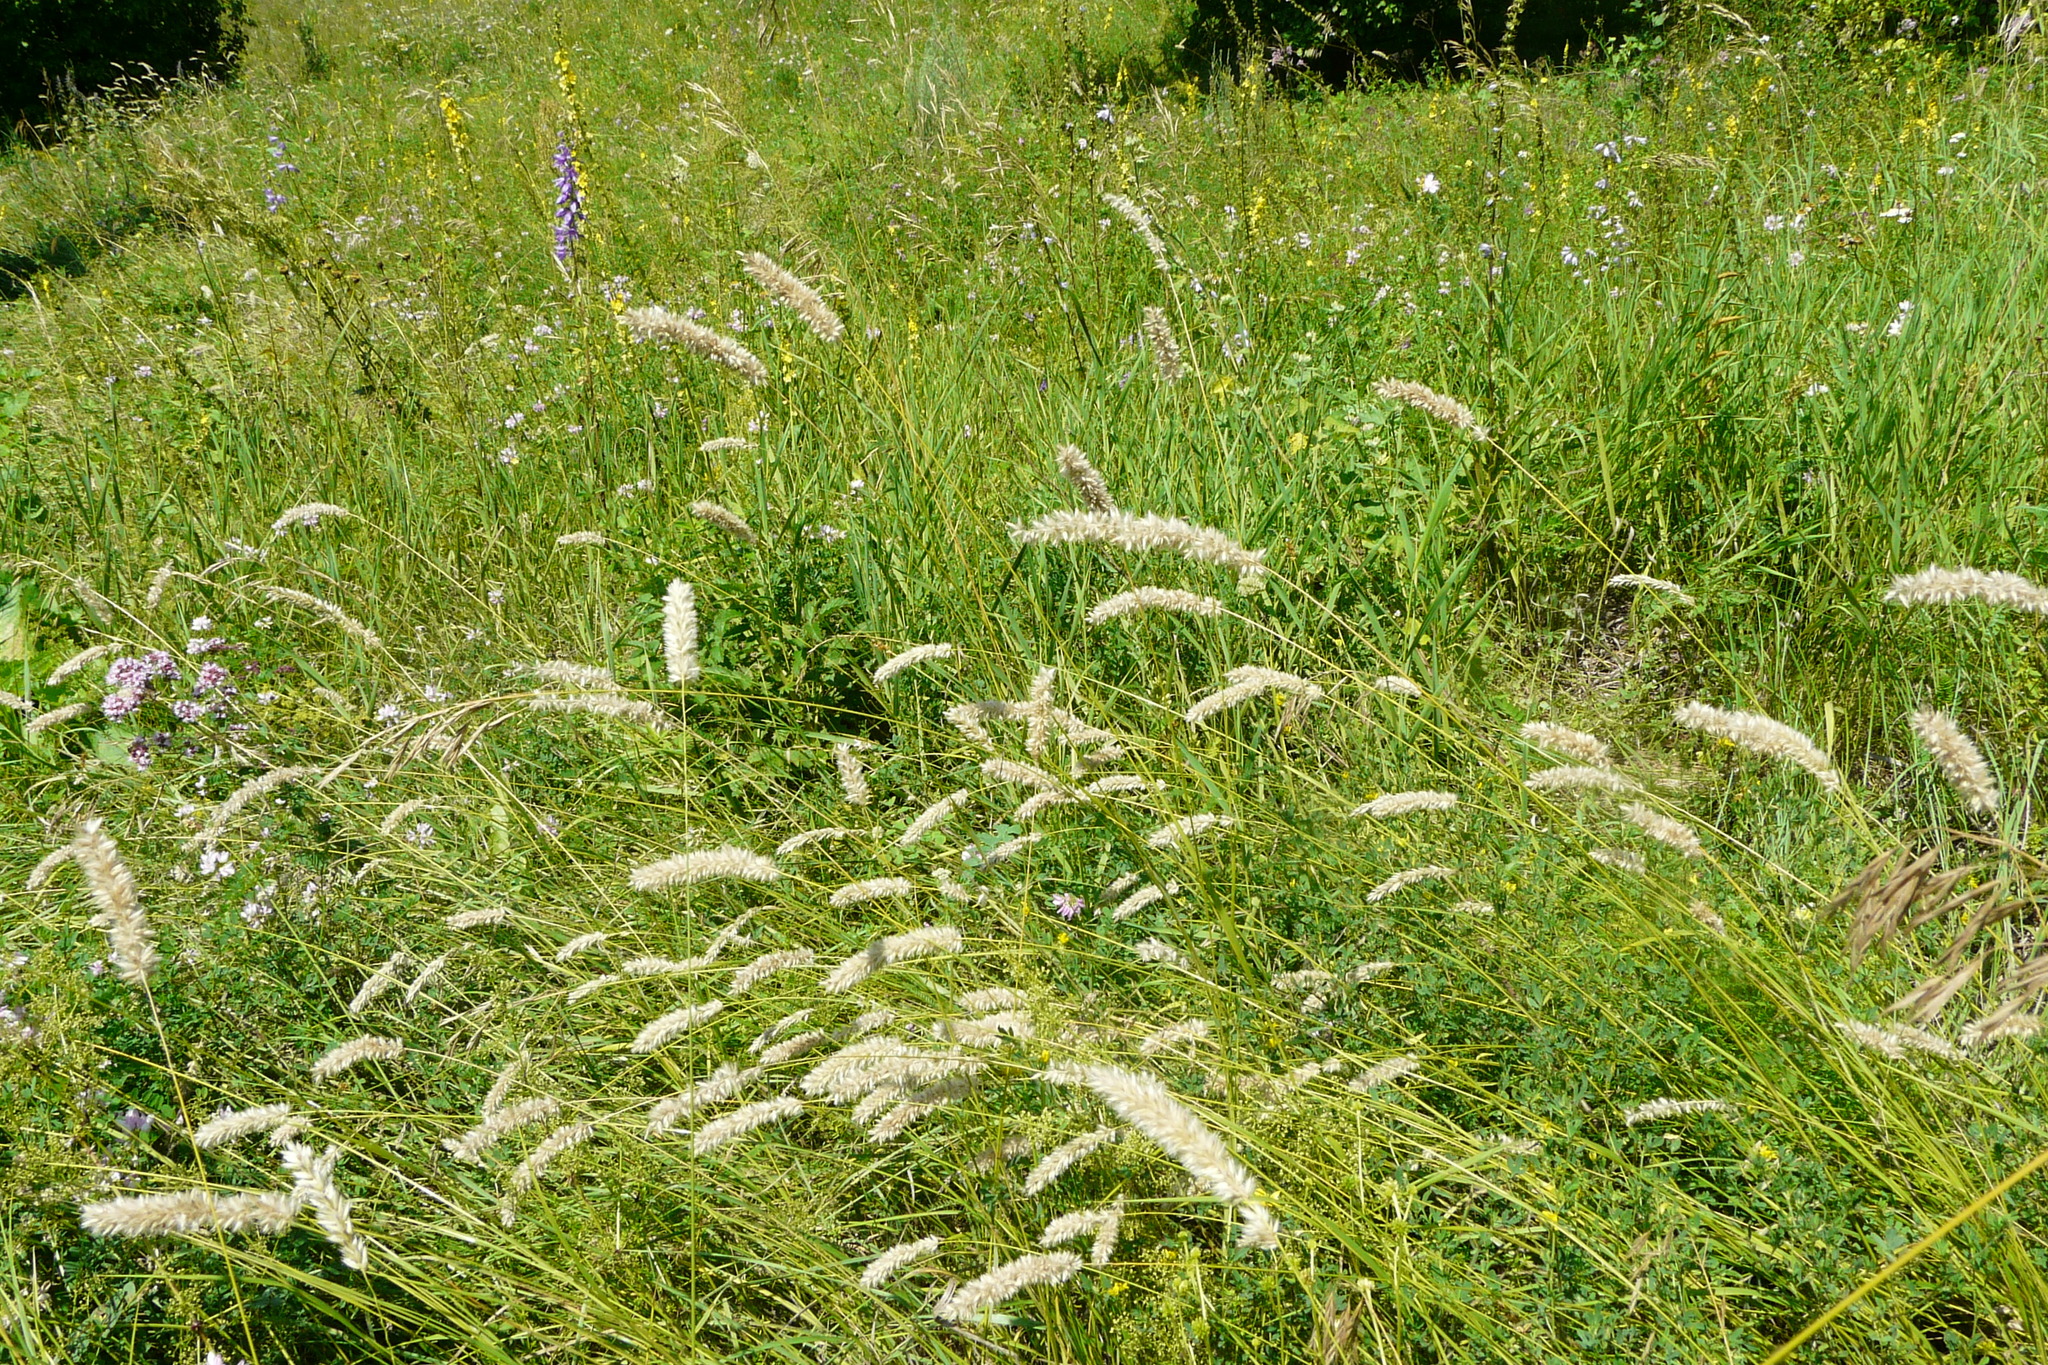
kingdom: Plantae
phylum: Tracheophyta
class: Liliopsida
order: Poales
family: Poaceae
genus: Melica
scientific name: Melica transsilvanica
